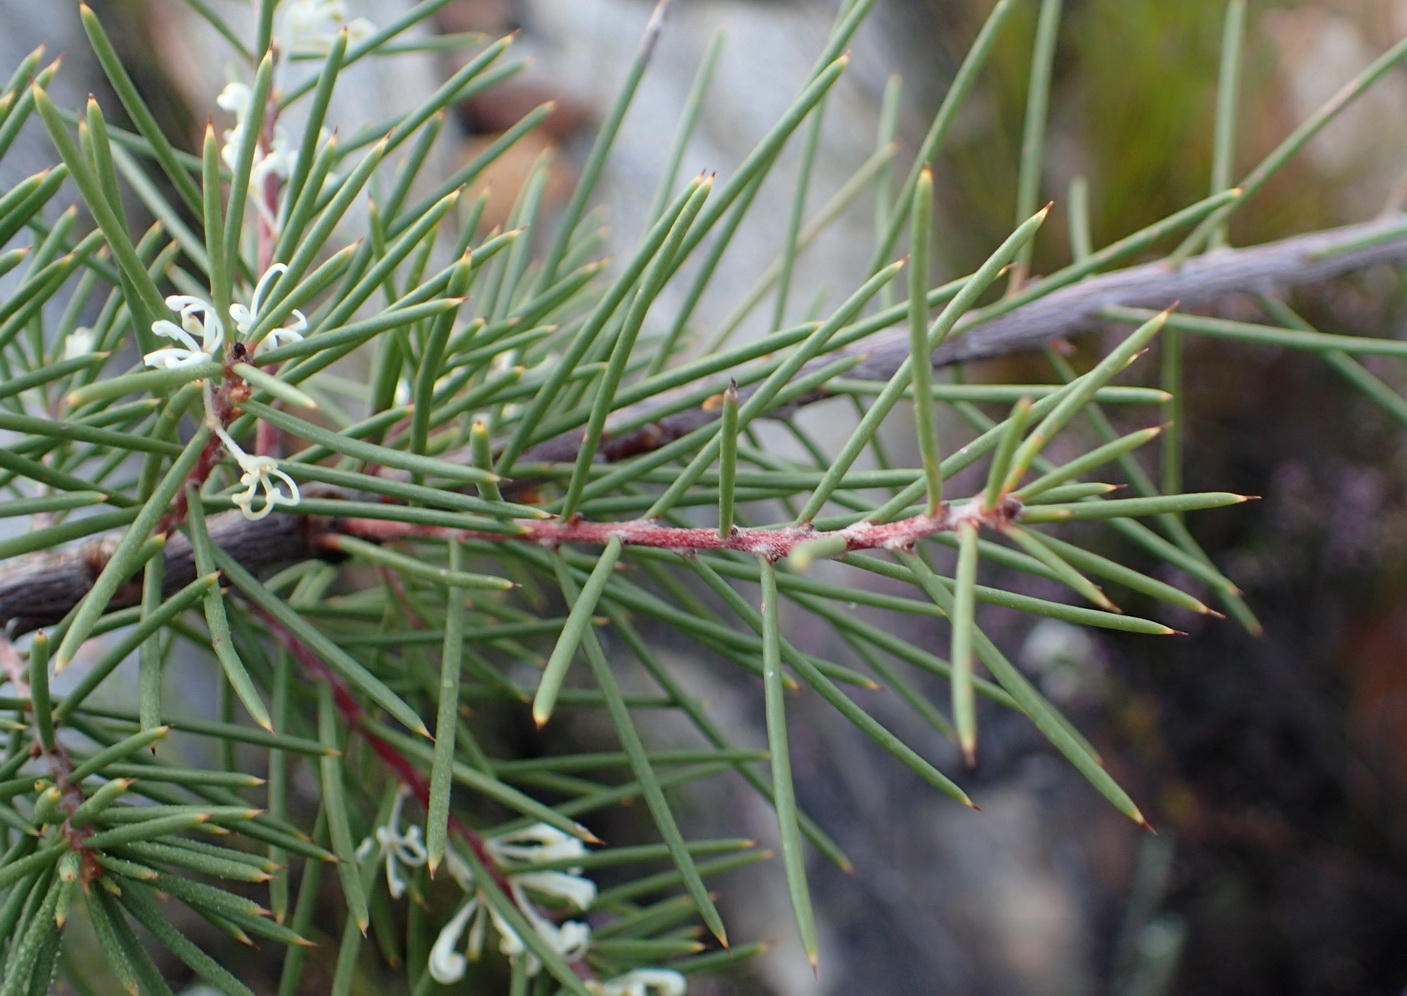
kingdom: Plantae
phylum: Tracheophyta
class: Magnoliopsida
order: Proteales
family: Proteaceae
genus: Hakea
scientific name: Hakea sericea
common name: Needle bush
